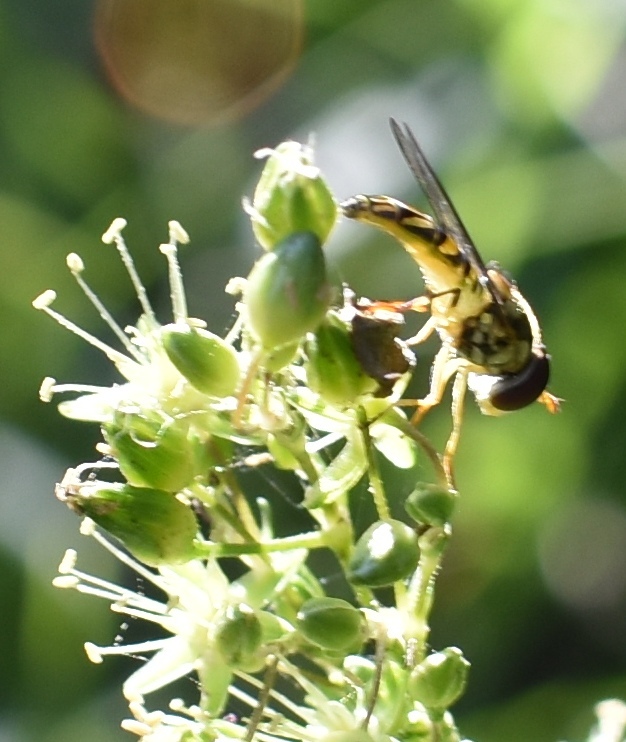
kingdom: Animalia
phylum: Arthropoda
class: Insecta
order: Diptera
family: Syrphidae
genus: Allograpta
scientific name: Allograpta obliqua
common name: Common oblique syrphid
